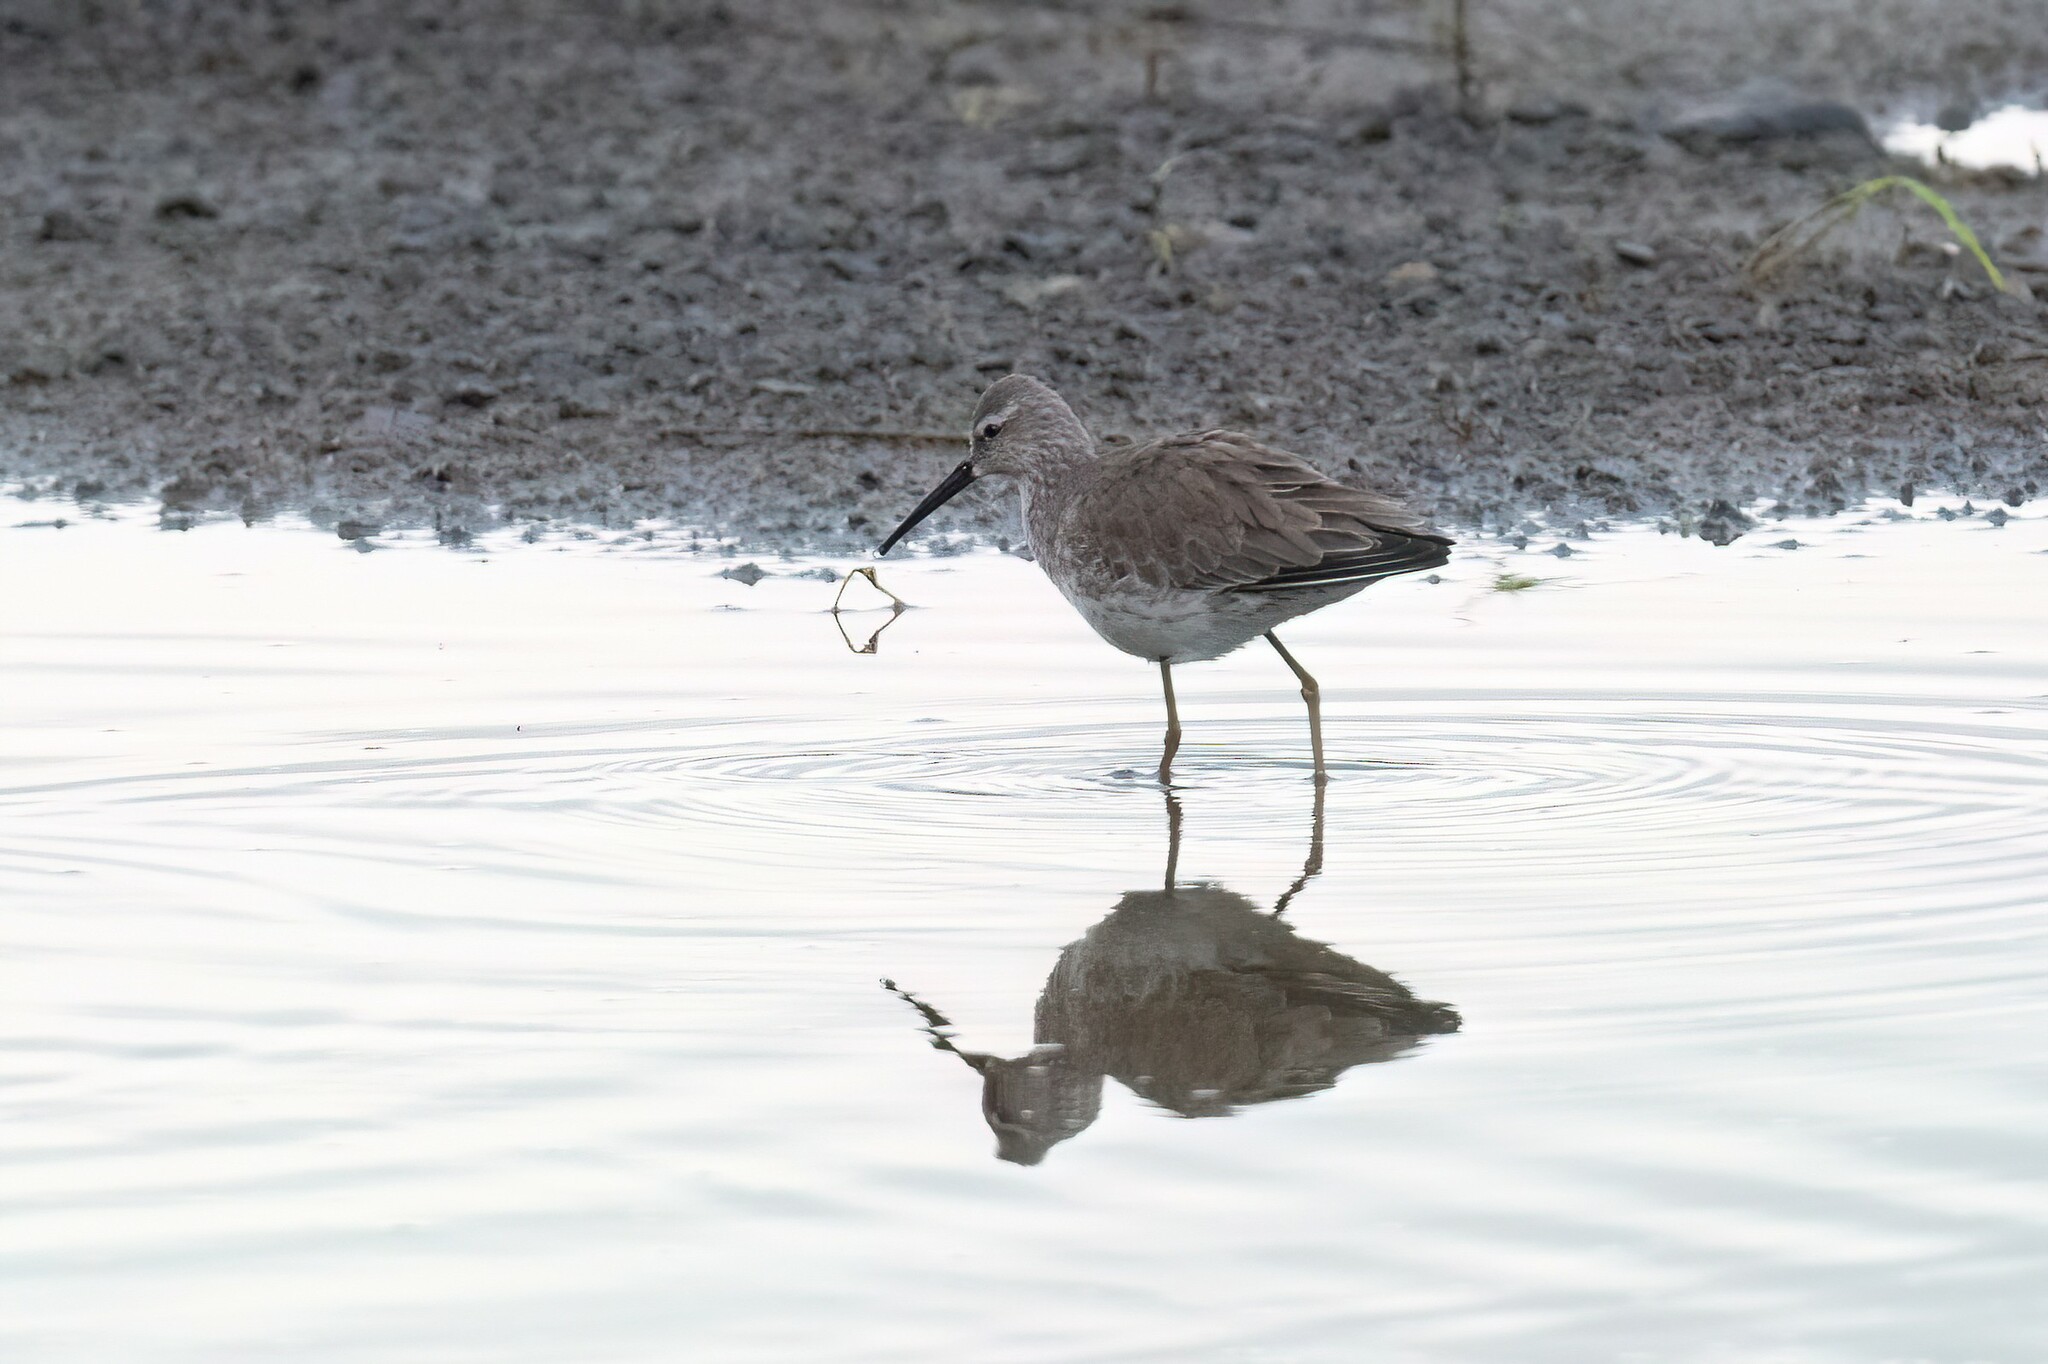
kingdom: Animalia
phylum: Chordata
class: Aves
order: Charadriiformes
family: Scolopacidae
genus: Calidris
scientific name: Calidris himantopus
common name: Stilt sandpiper
